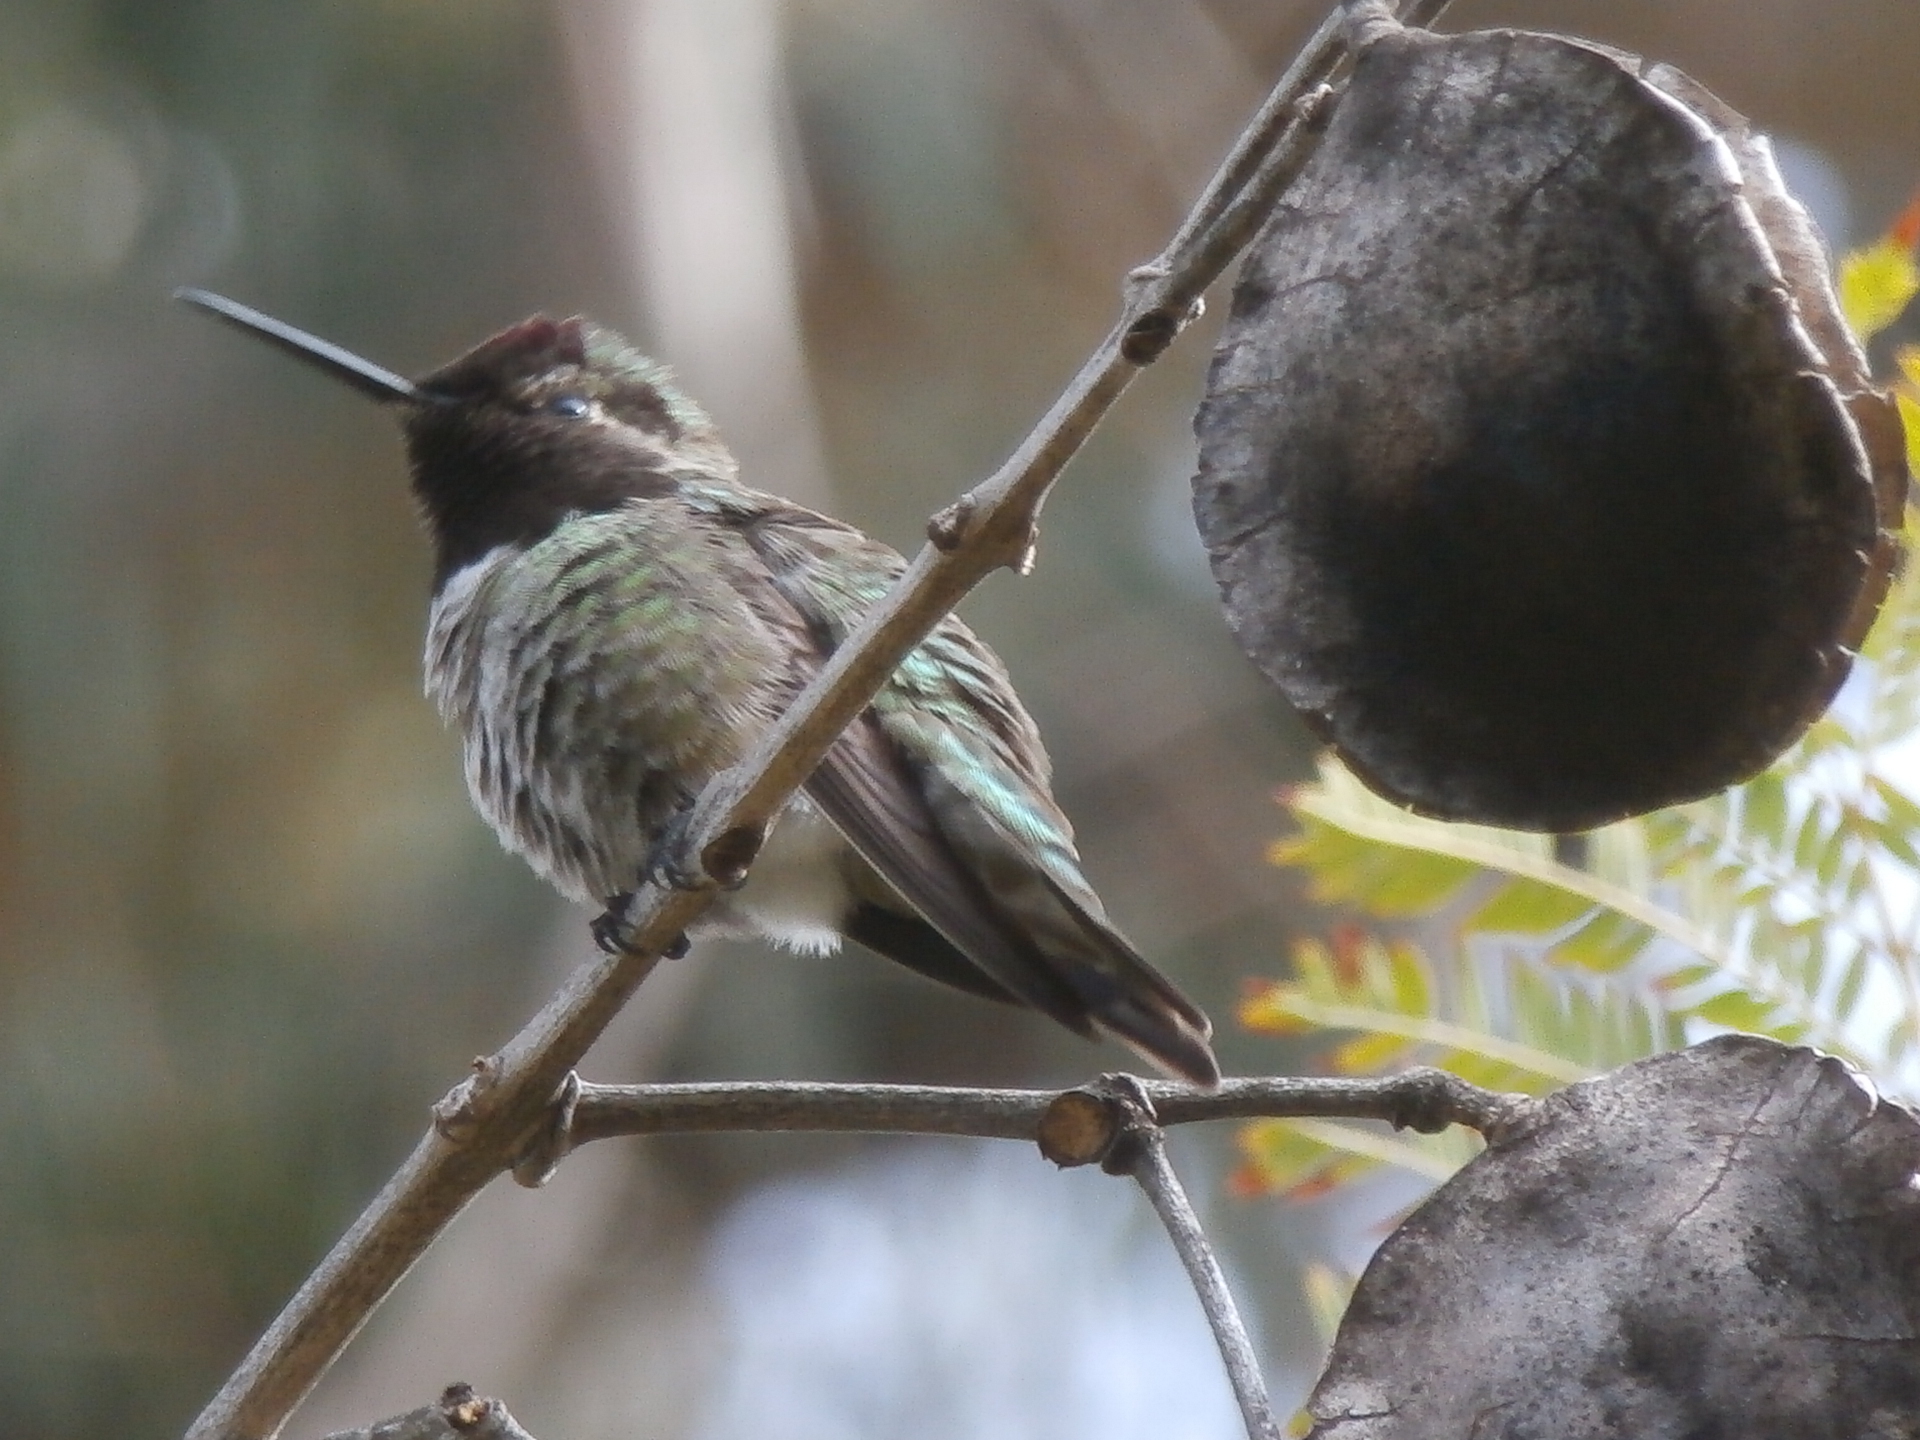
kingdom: Animalia
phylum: Chordata
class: Aves
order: Apodiformes
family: Trochilidae
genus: Calypte
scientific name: Calypte anna
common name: Anna's hummingbird
